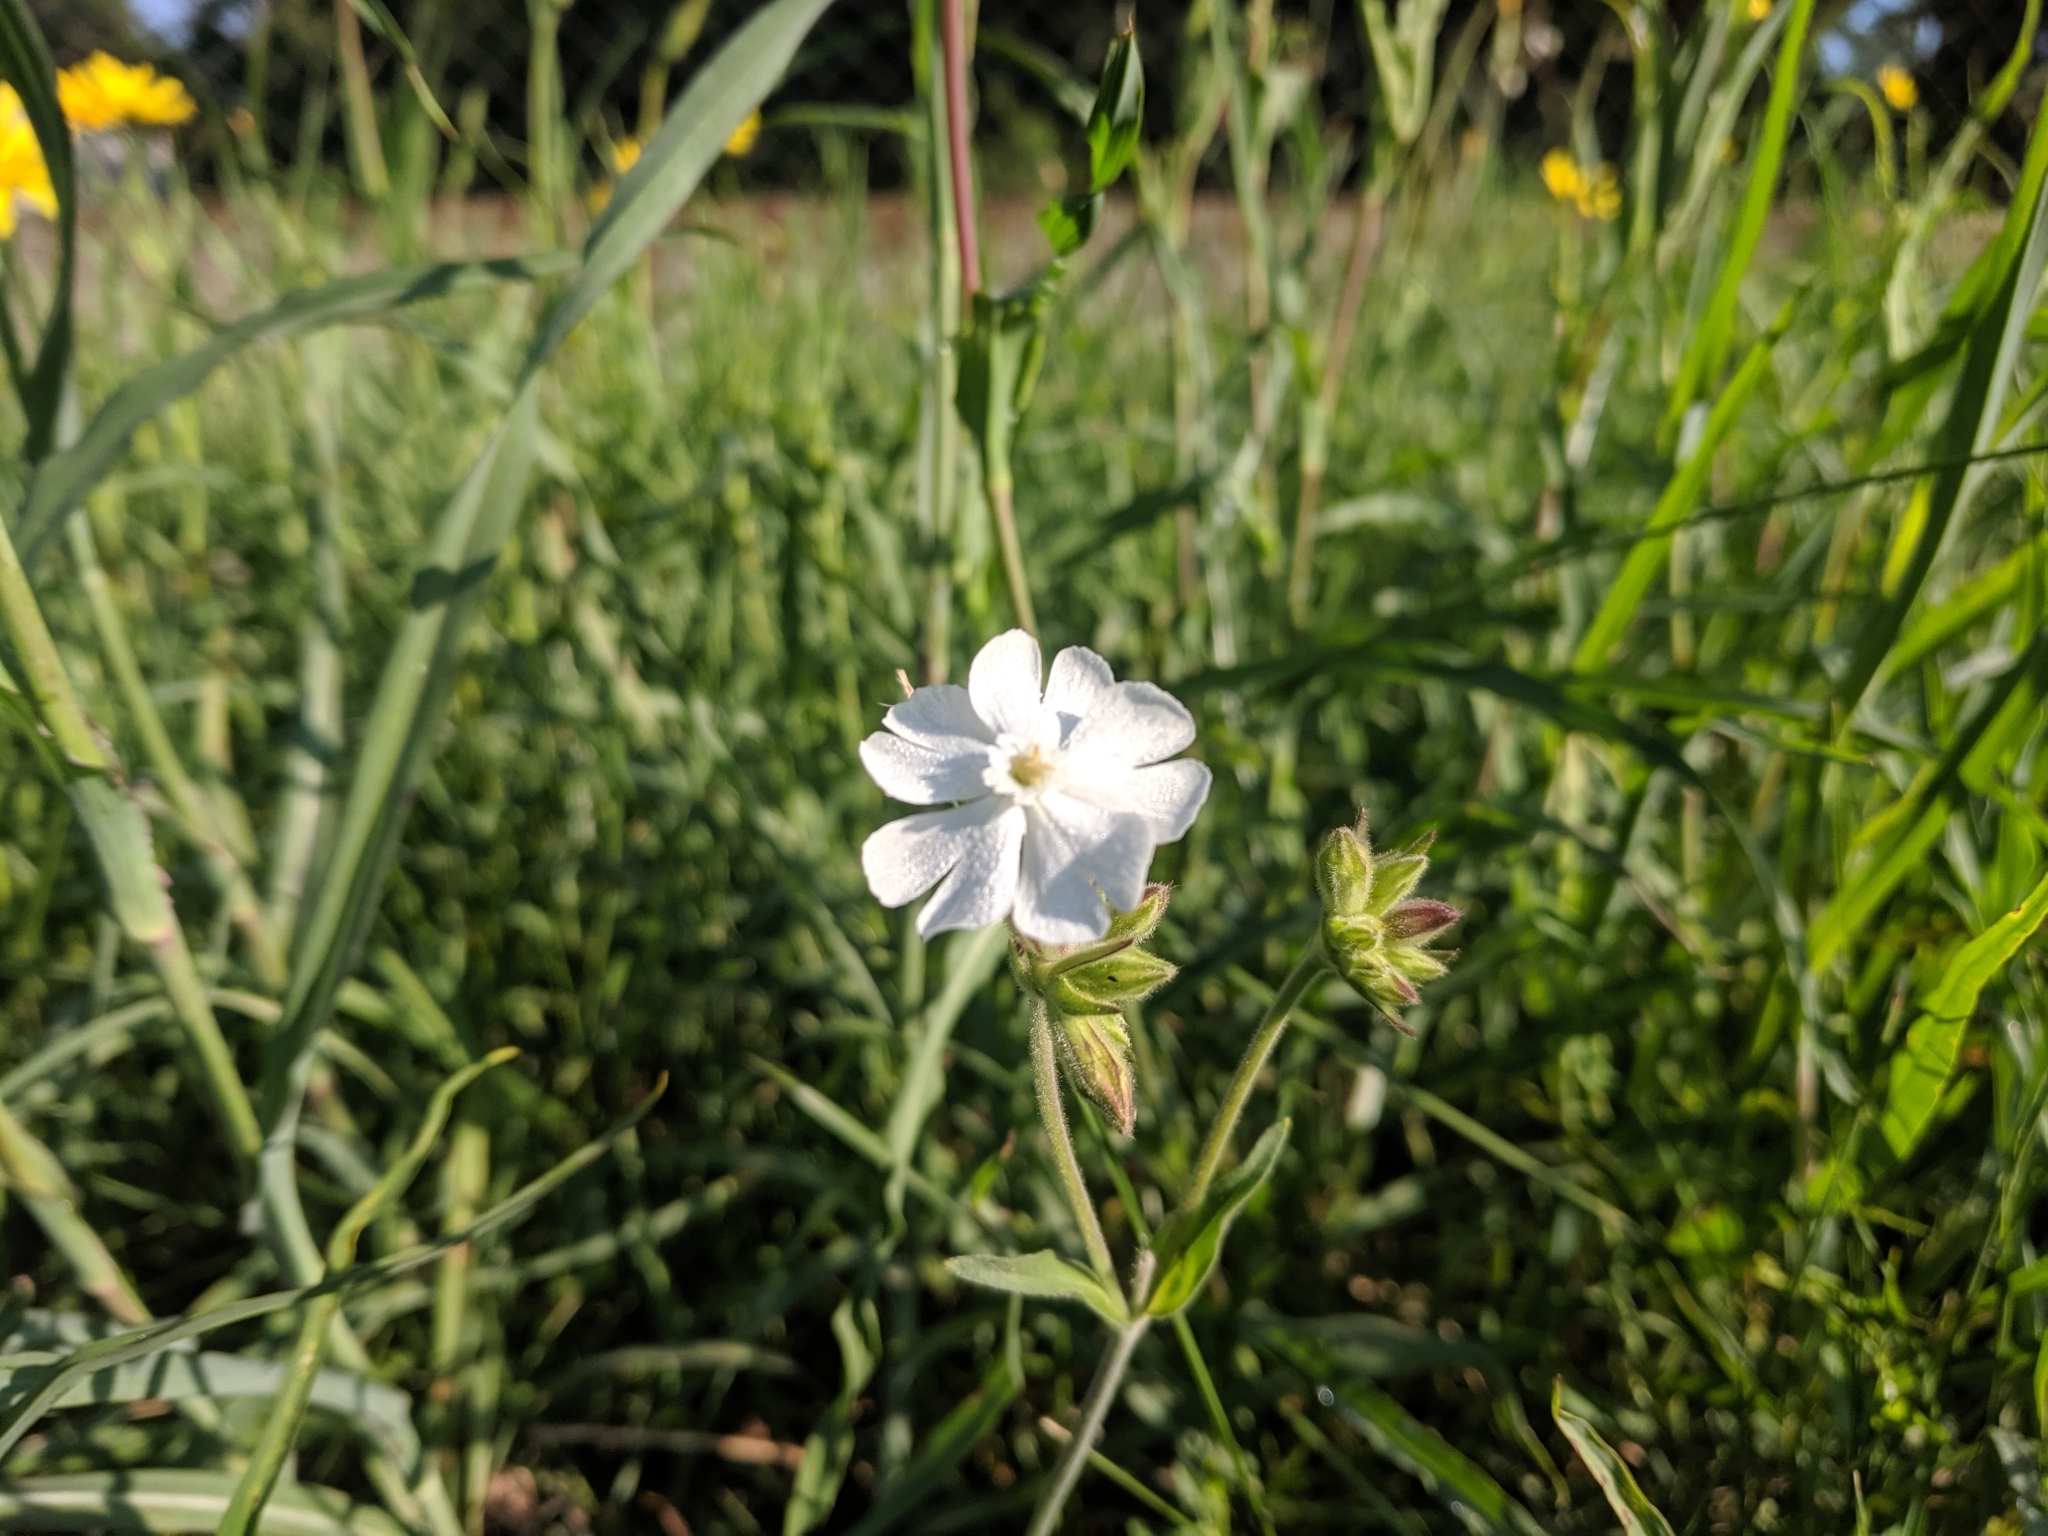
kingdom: Plantae
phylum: Tracheophyta
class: Magnoliopsida
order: Caryophyllales
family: Caryophyllaceae
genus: Silene
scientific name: Silene latifolia
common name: White campion
